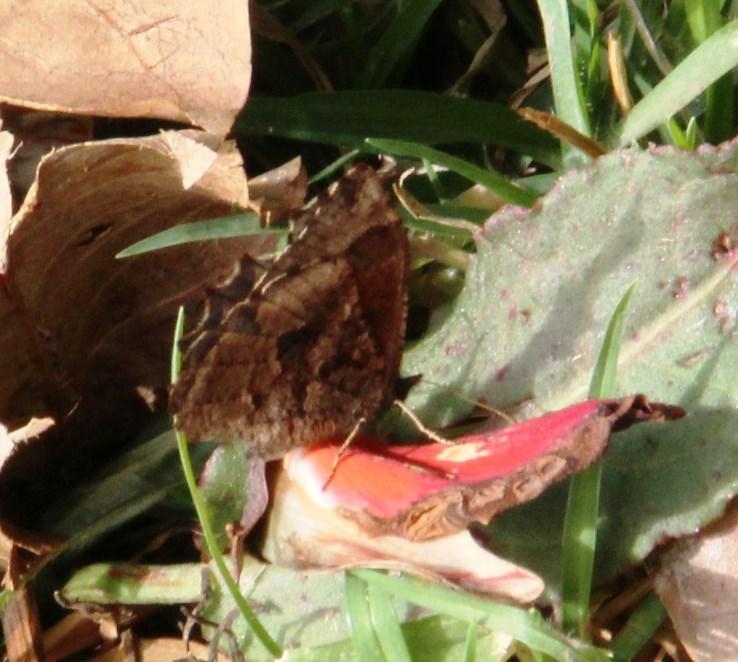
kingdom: Animalia
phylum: Arthropoda
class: Insecta
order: Lepidoptera
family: Nymphalidae
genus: Panyapedaliodes
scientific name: Panyapedaliodes drymaea
